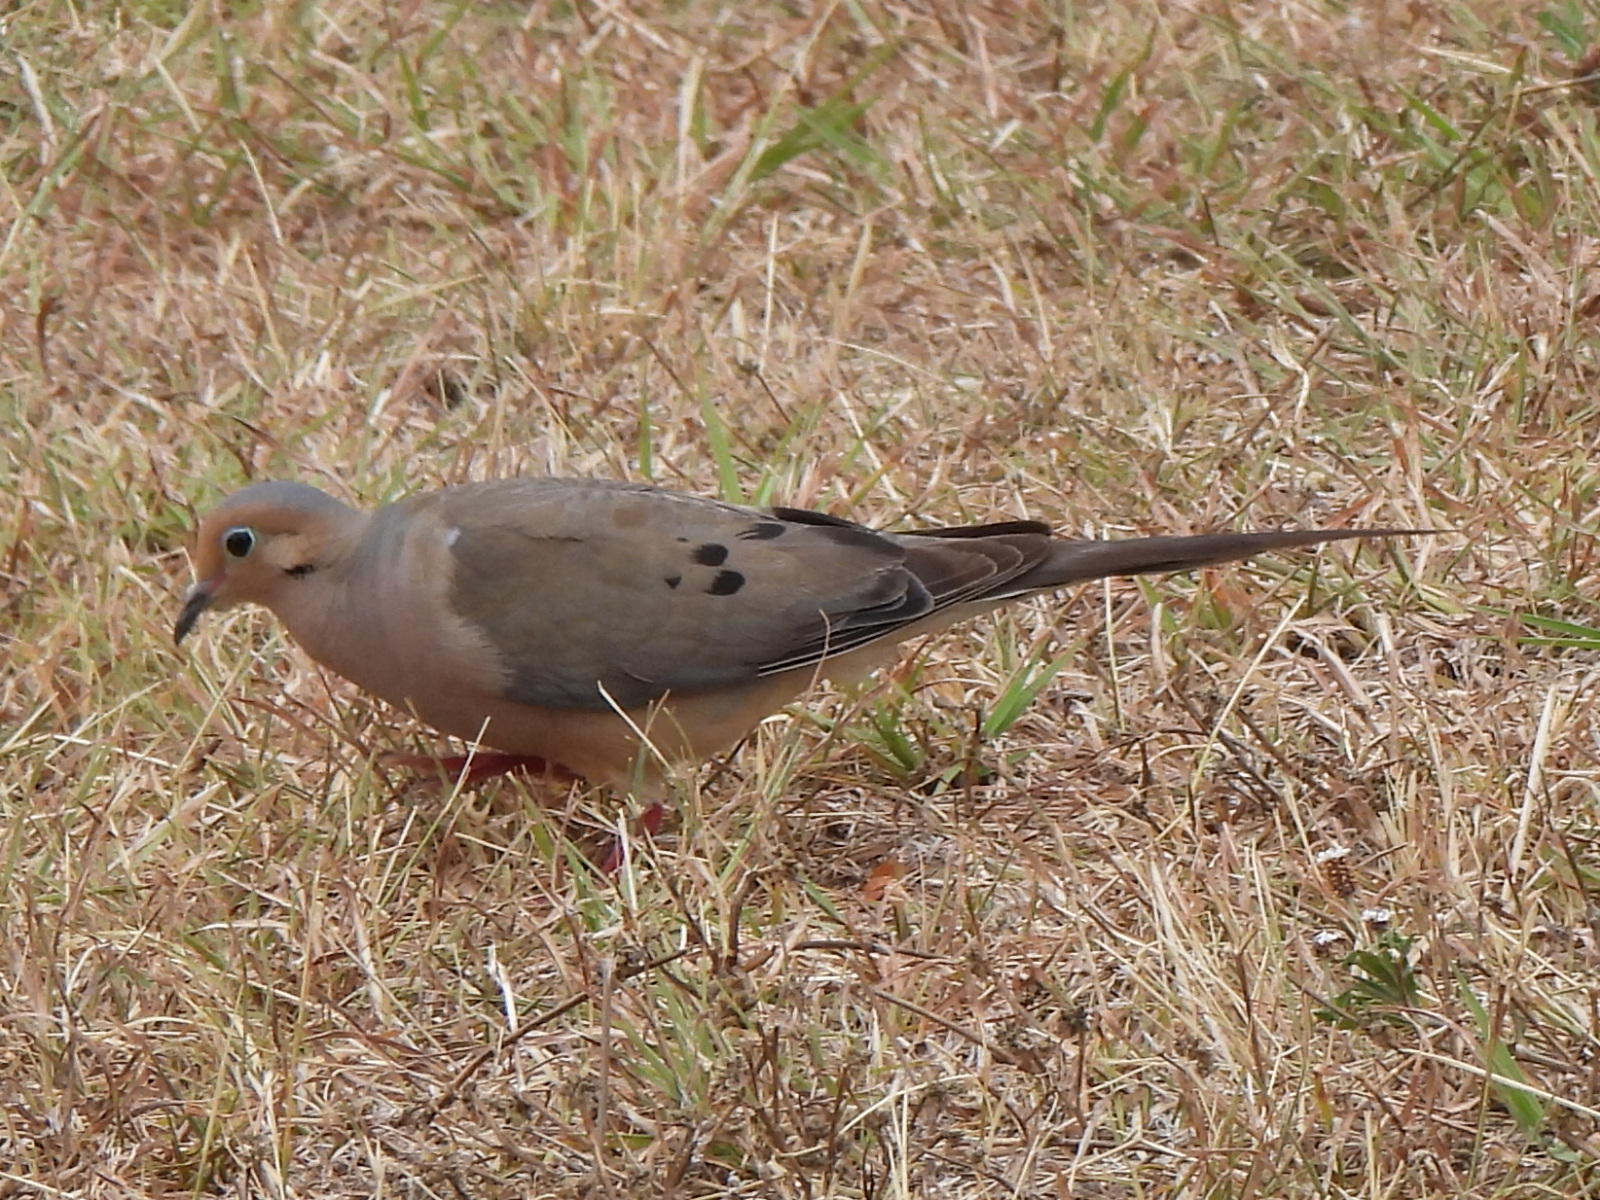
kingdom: Animalia
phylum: Chordata
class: Aves
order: Columbiformes
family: Columbidae
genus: Zenaida
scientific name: Zenaida macroura
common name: Mourning dove
